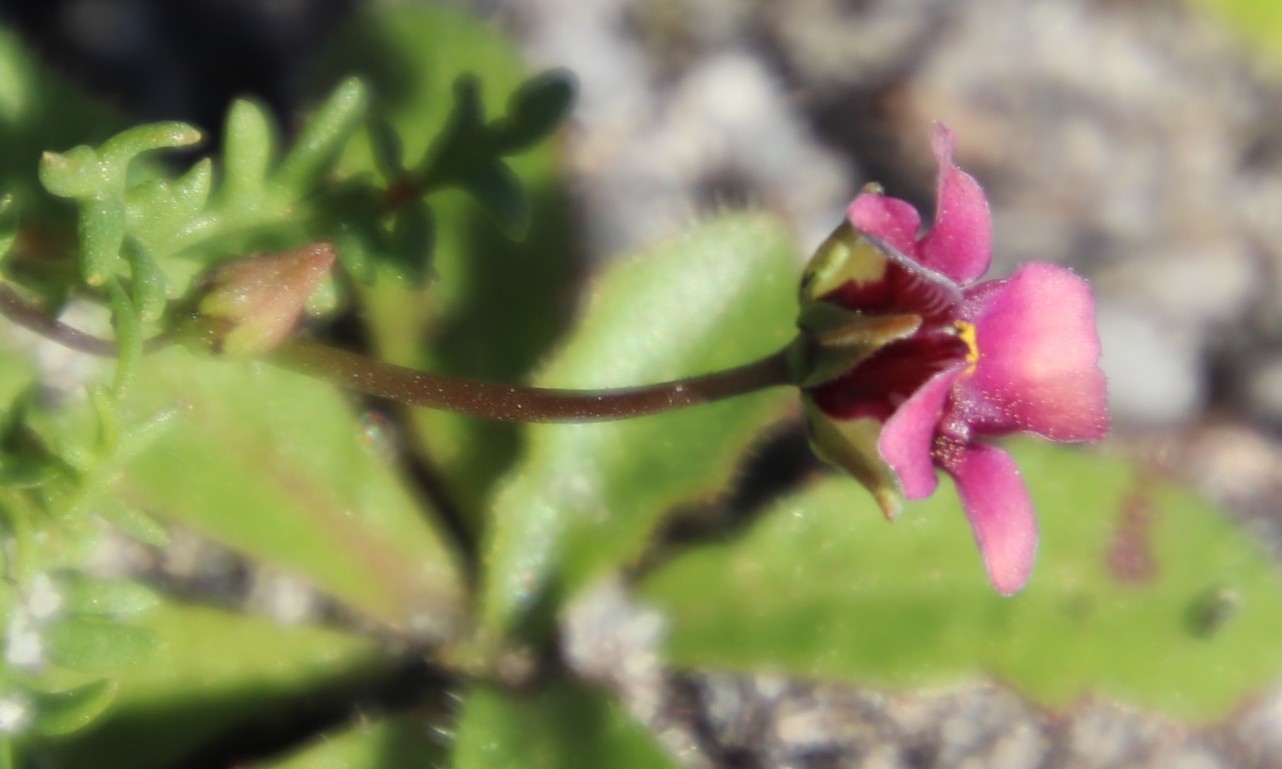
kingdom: Plantae
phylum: Tracheophyta
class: Magnoliopsida
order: Lamiales
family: Scrophulariaceae
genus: Diascia
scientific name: Diascia elongata
